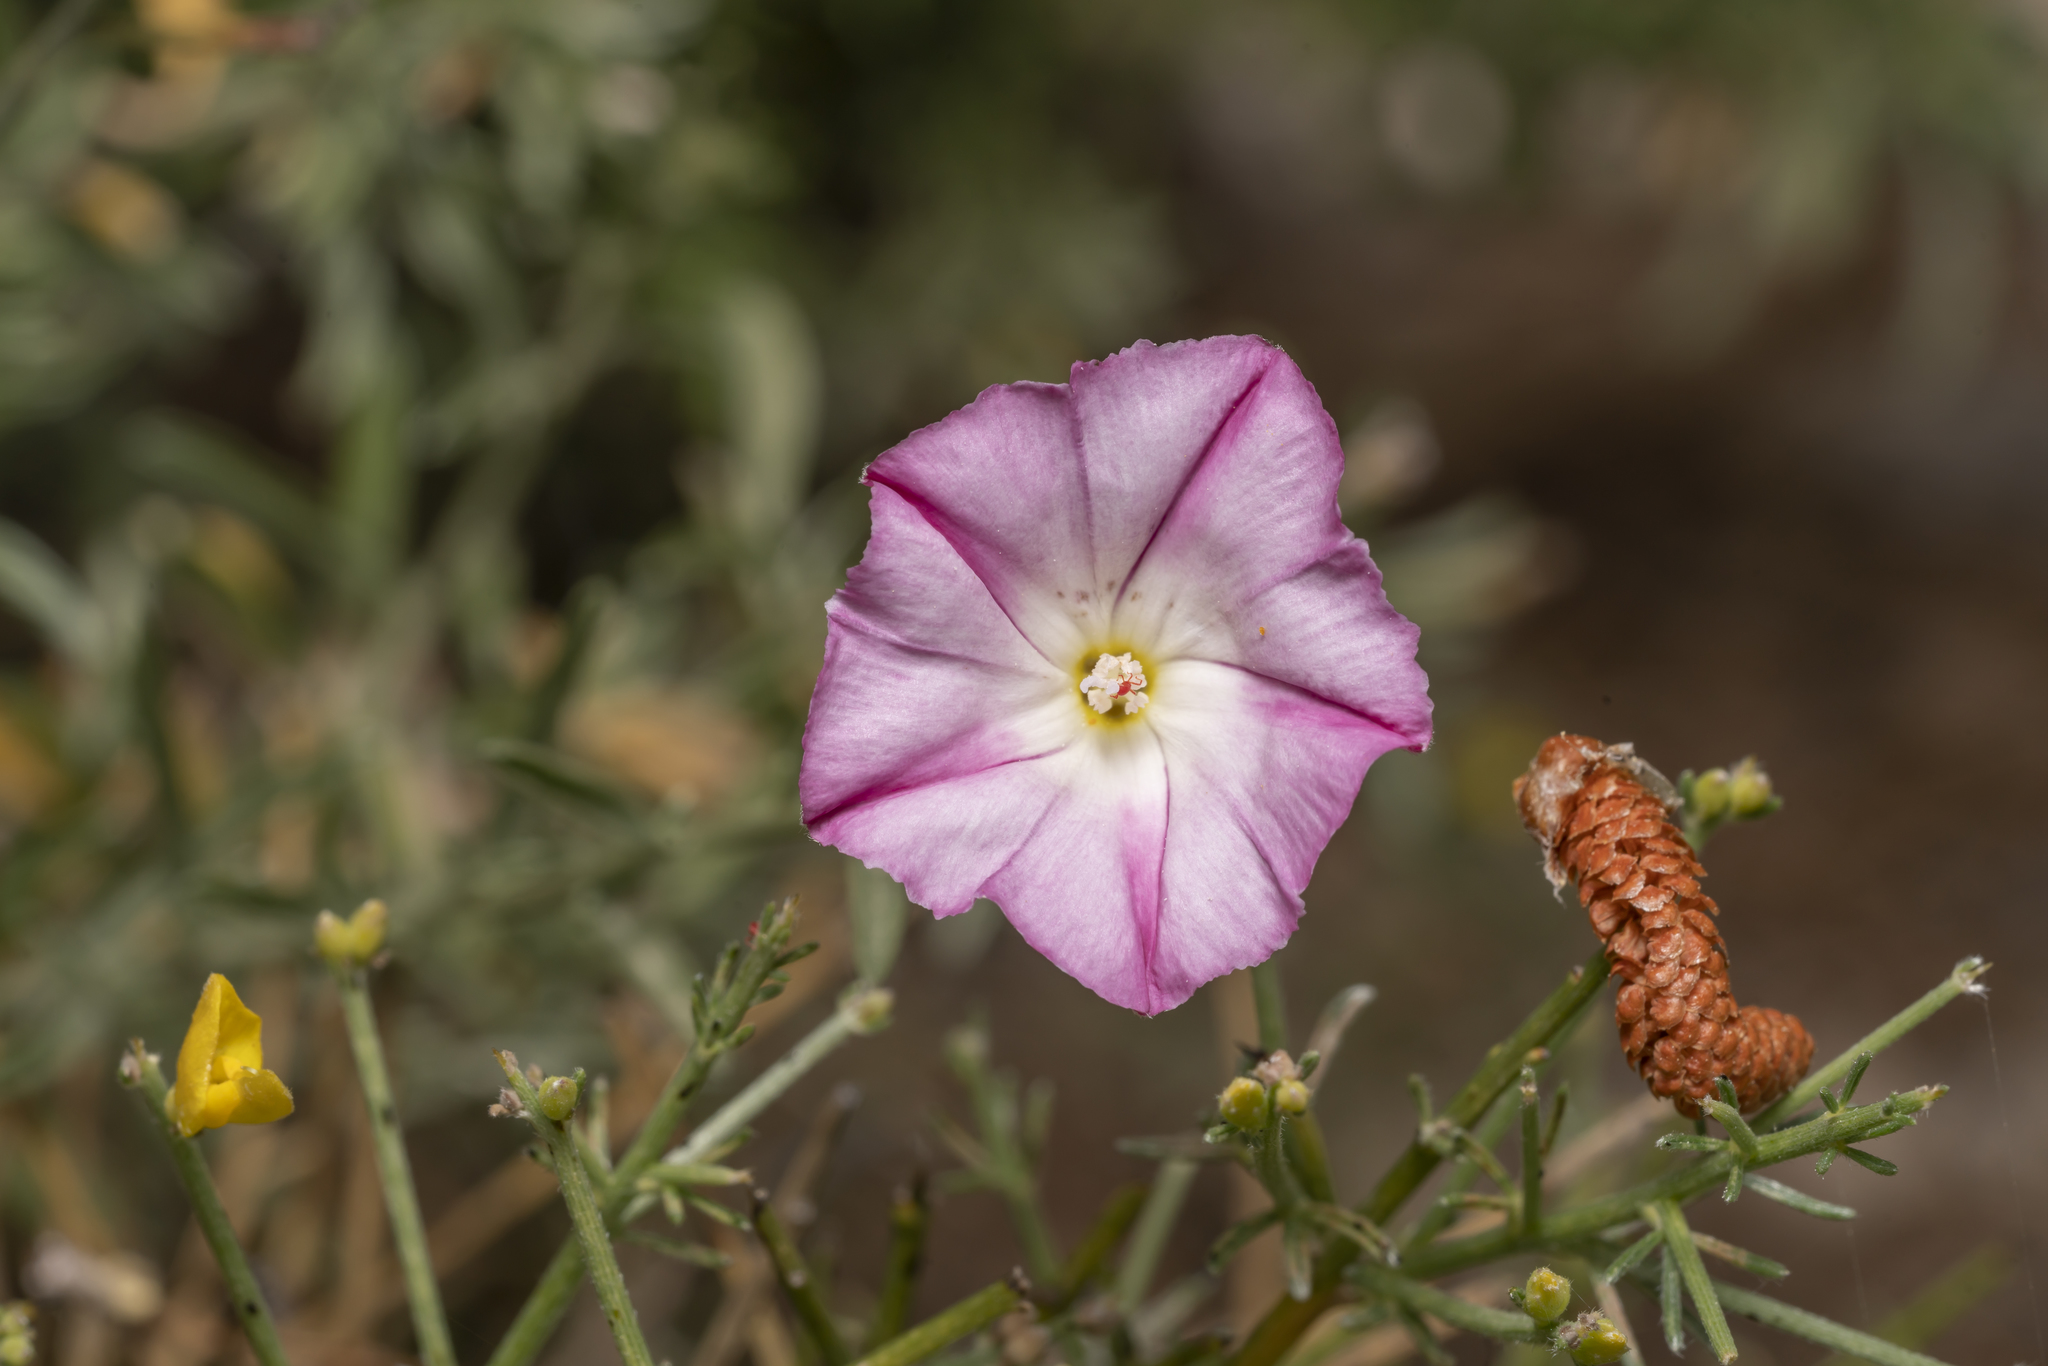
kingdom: Plantae
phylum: Tracheophyta
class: Magnoliopsida
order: Solanales
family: Convolvulaceae
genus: Convolvulus
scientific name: Convolvulus oleifolius
